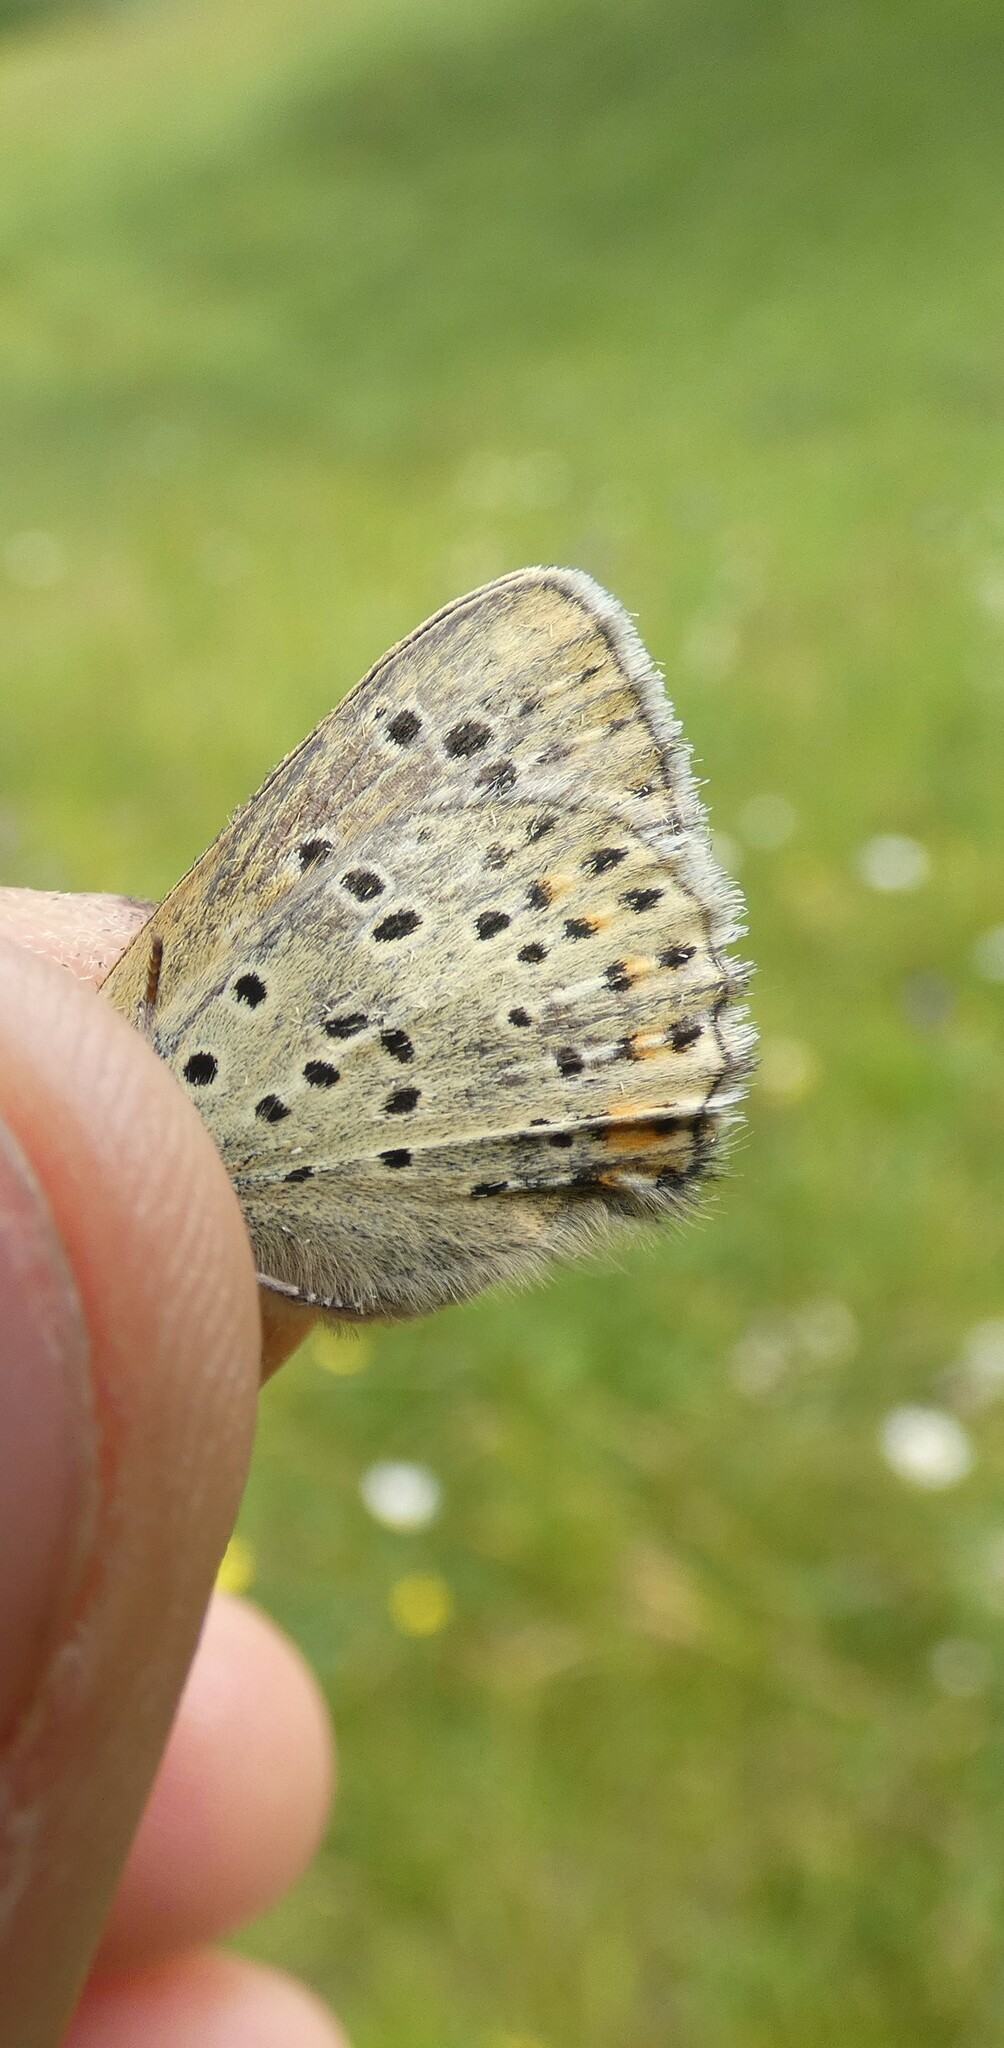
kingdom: Animalia
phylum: Arthropoda
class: Insecta
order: Lepidoptera
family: Lycaenidae
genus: Loweia
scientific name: Loweia tityrus
